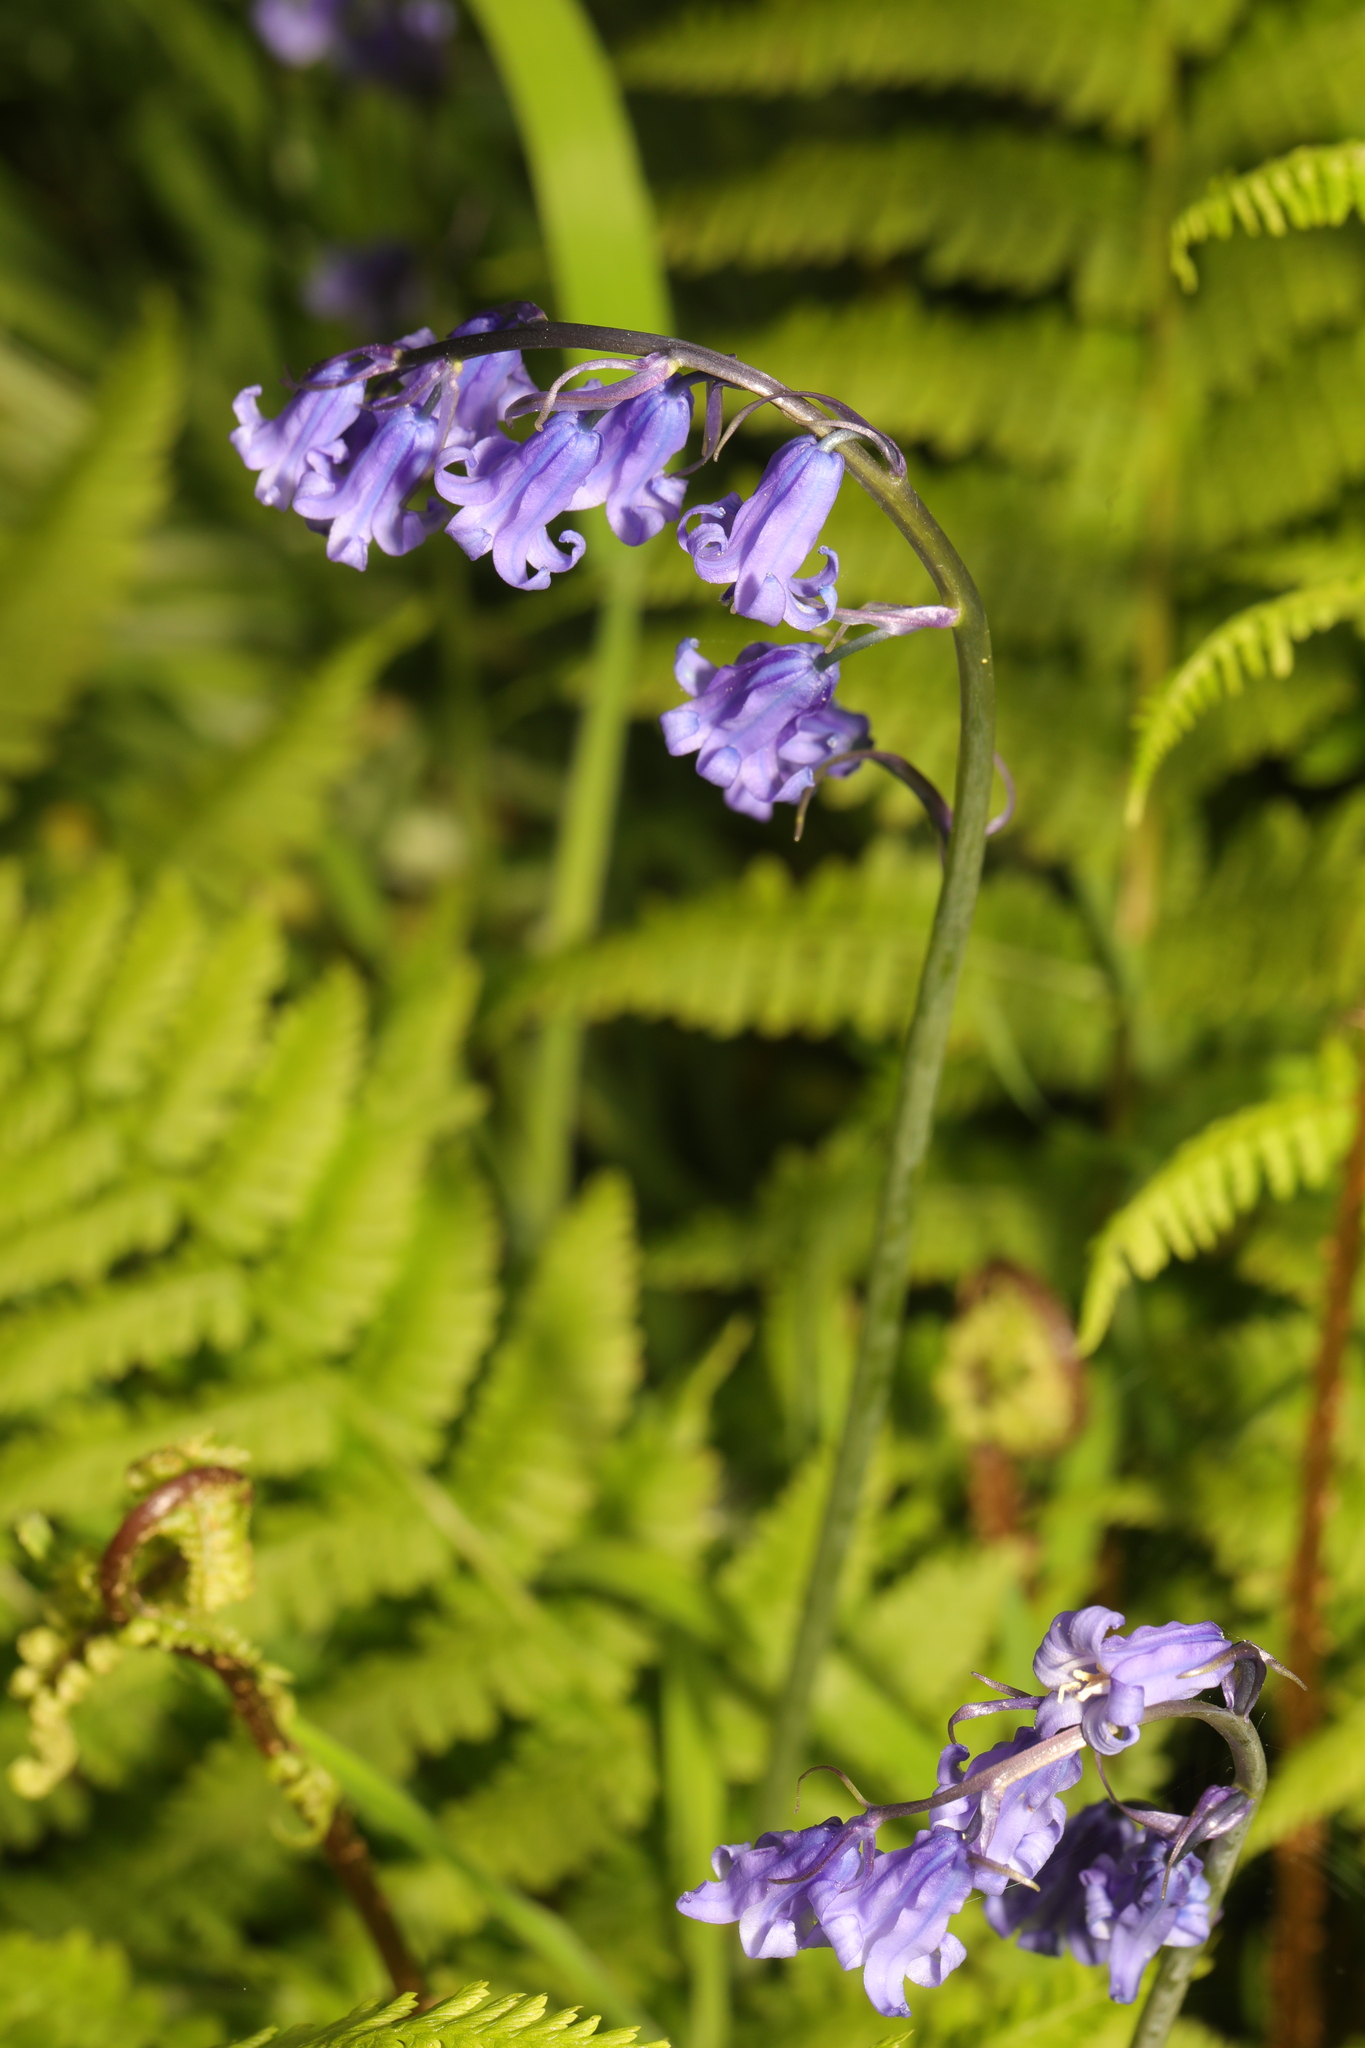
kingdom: Plantae
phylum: Tracheophyta
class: Liliopsida
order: Asparagales
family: Asparagaceae
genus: Hyacinthoides
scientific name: Hyacinthoides non-scripta
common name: Bluebell
